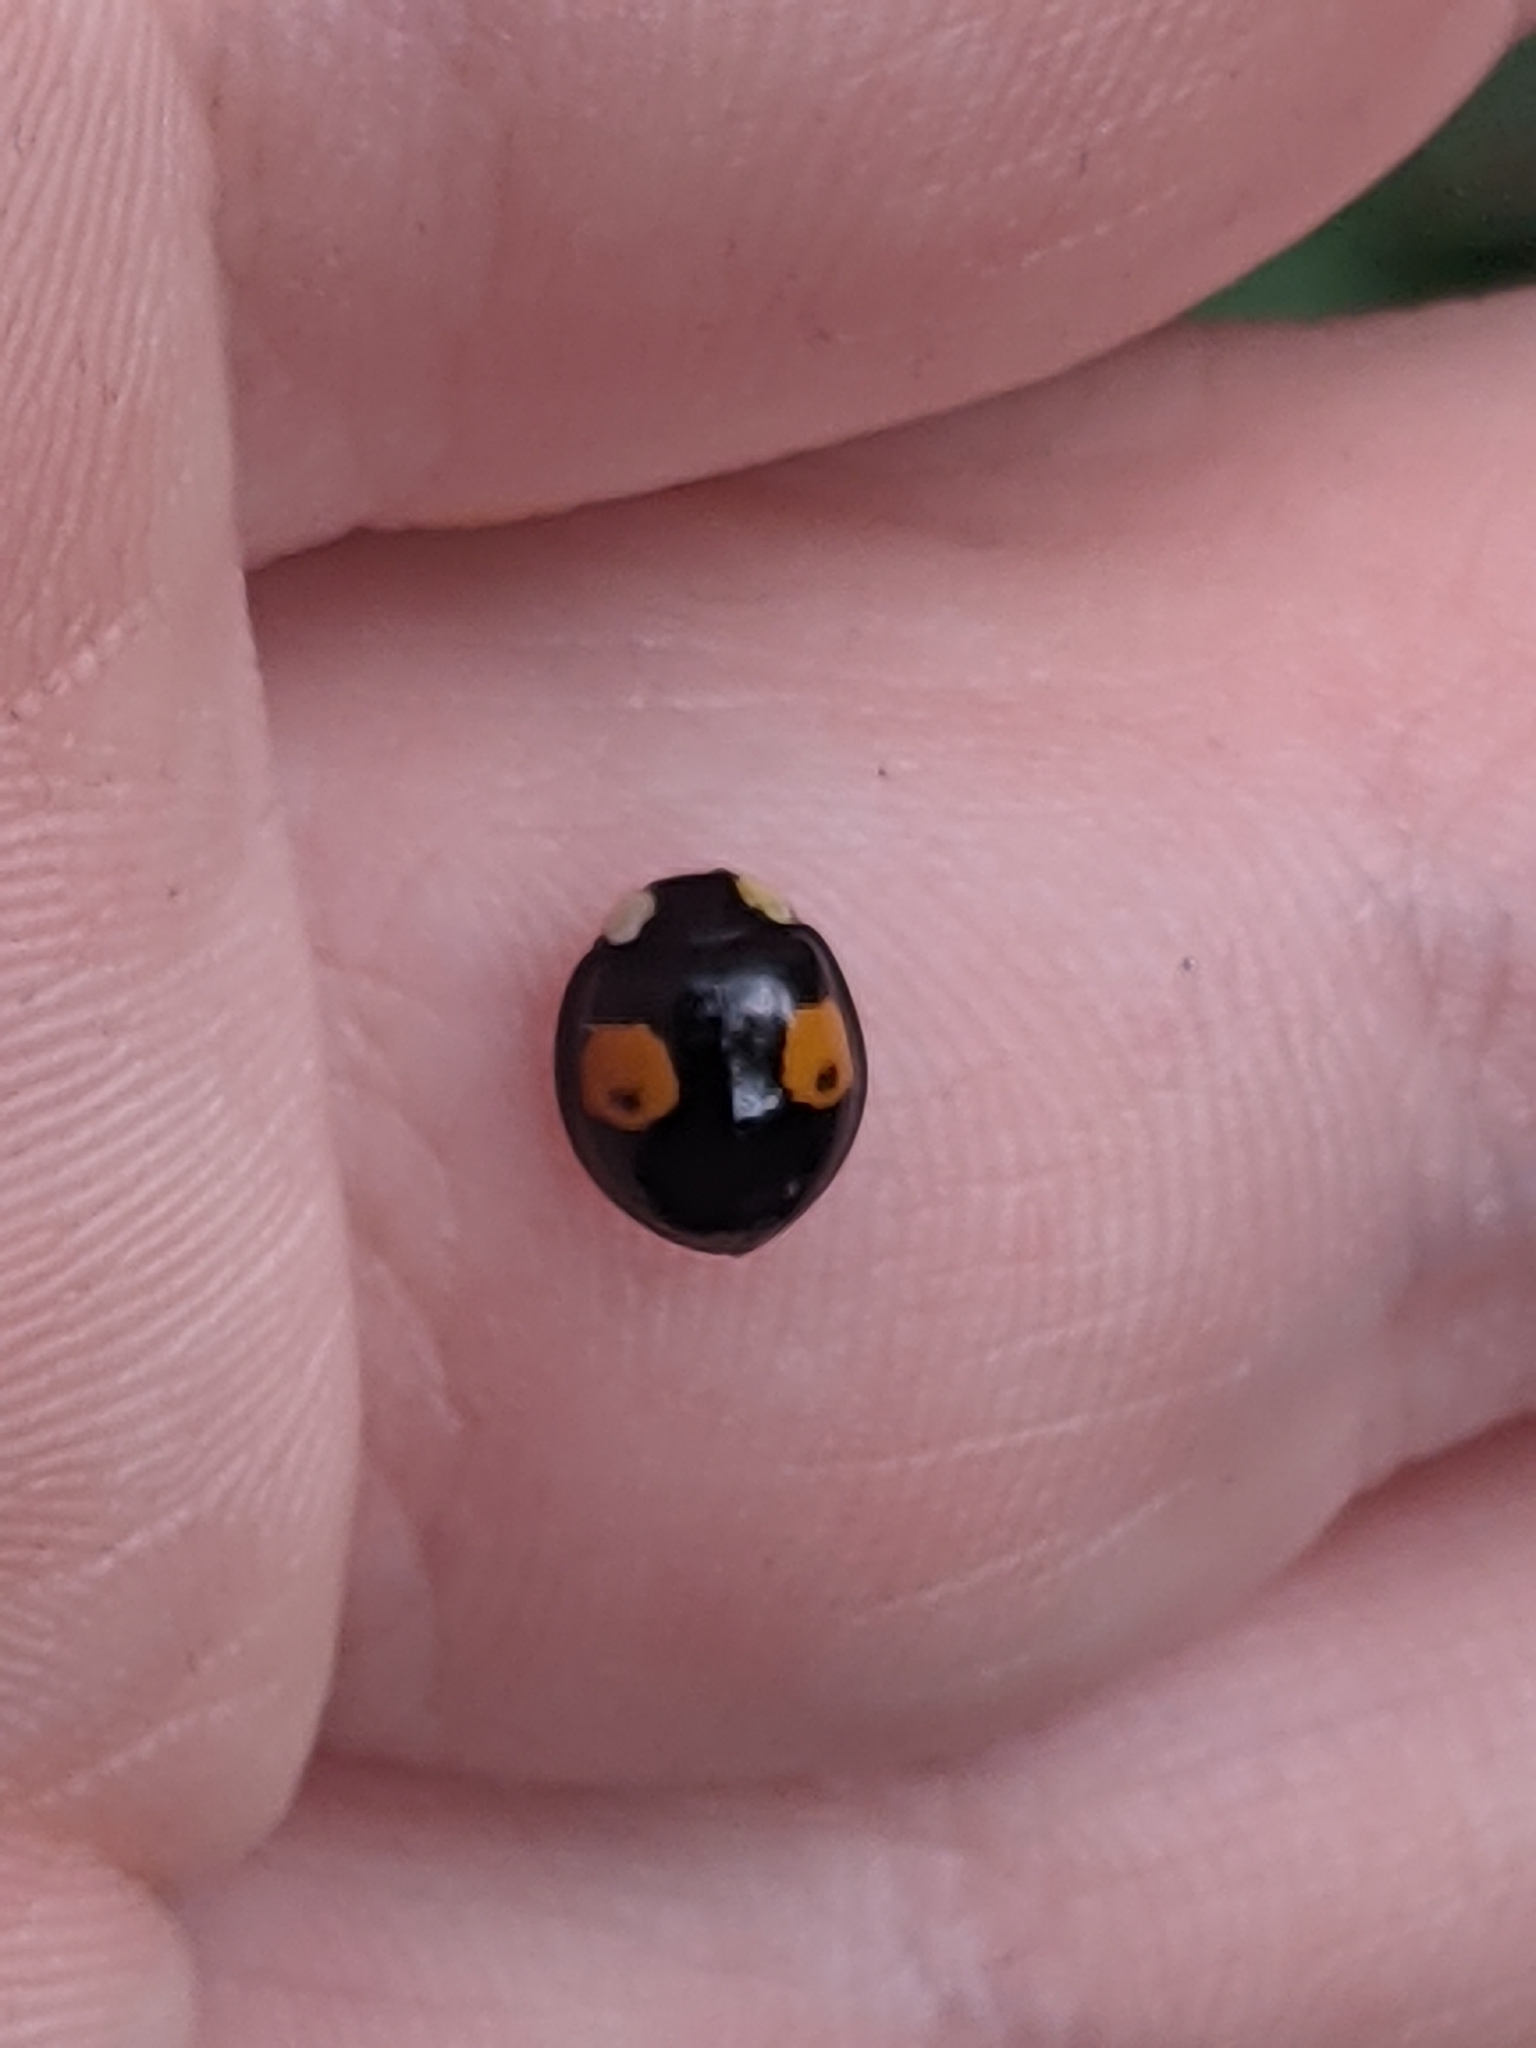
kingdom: Animalia
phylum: Arthropoda
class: Insecta
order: Coleoptera
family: Coccinellidae
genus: Harmonia
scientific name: Harmonia axyridis
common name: Harlequin ladybird
